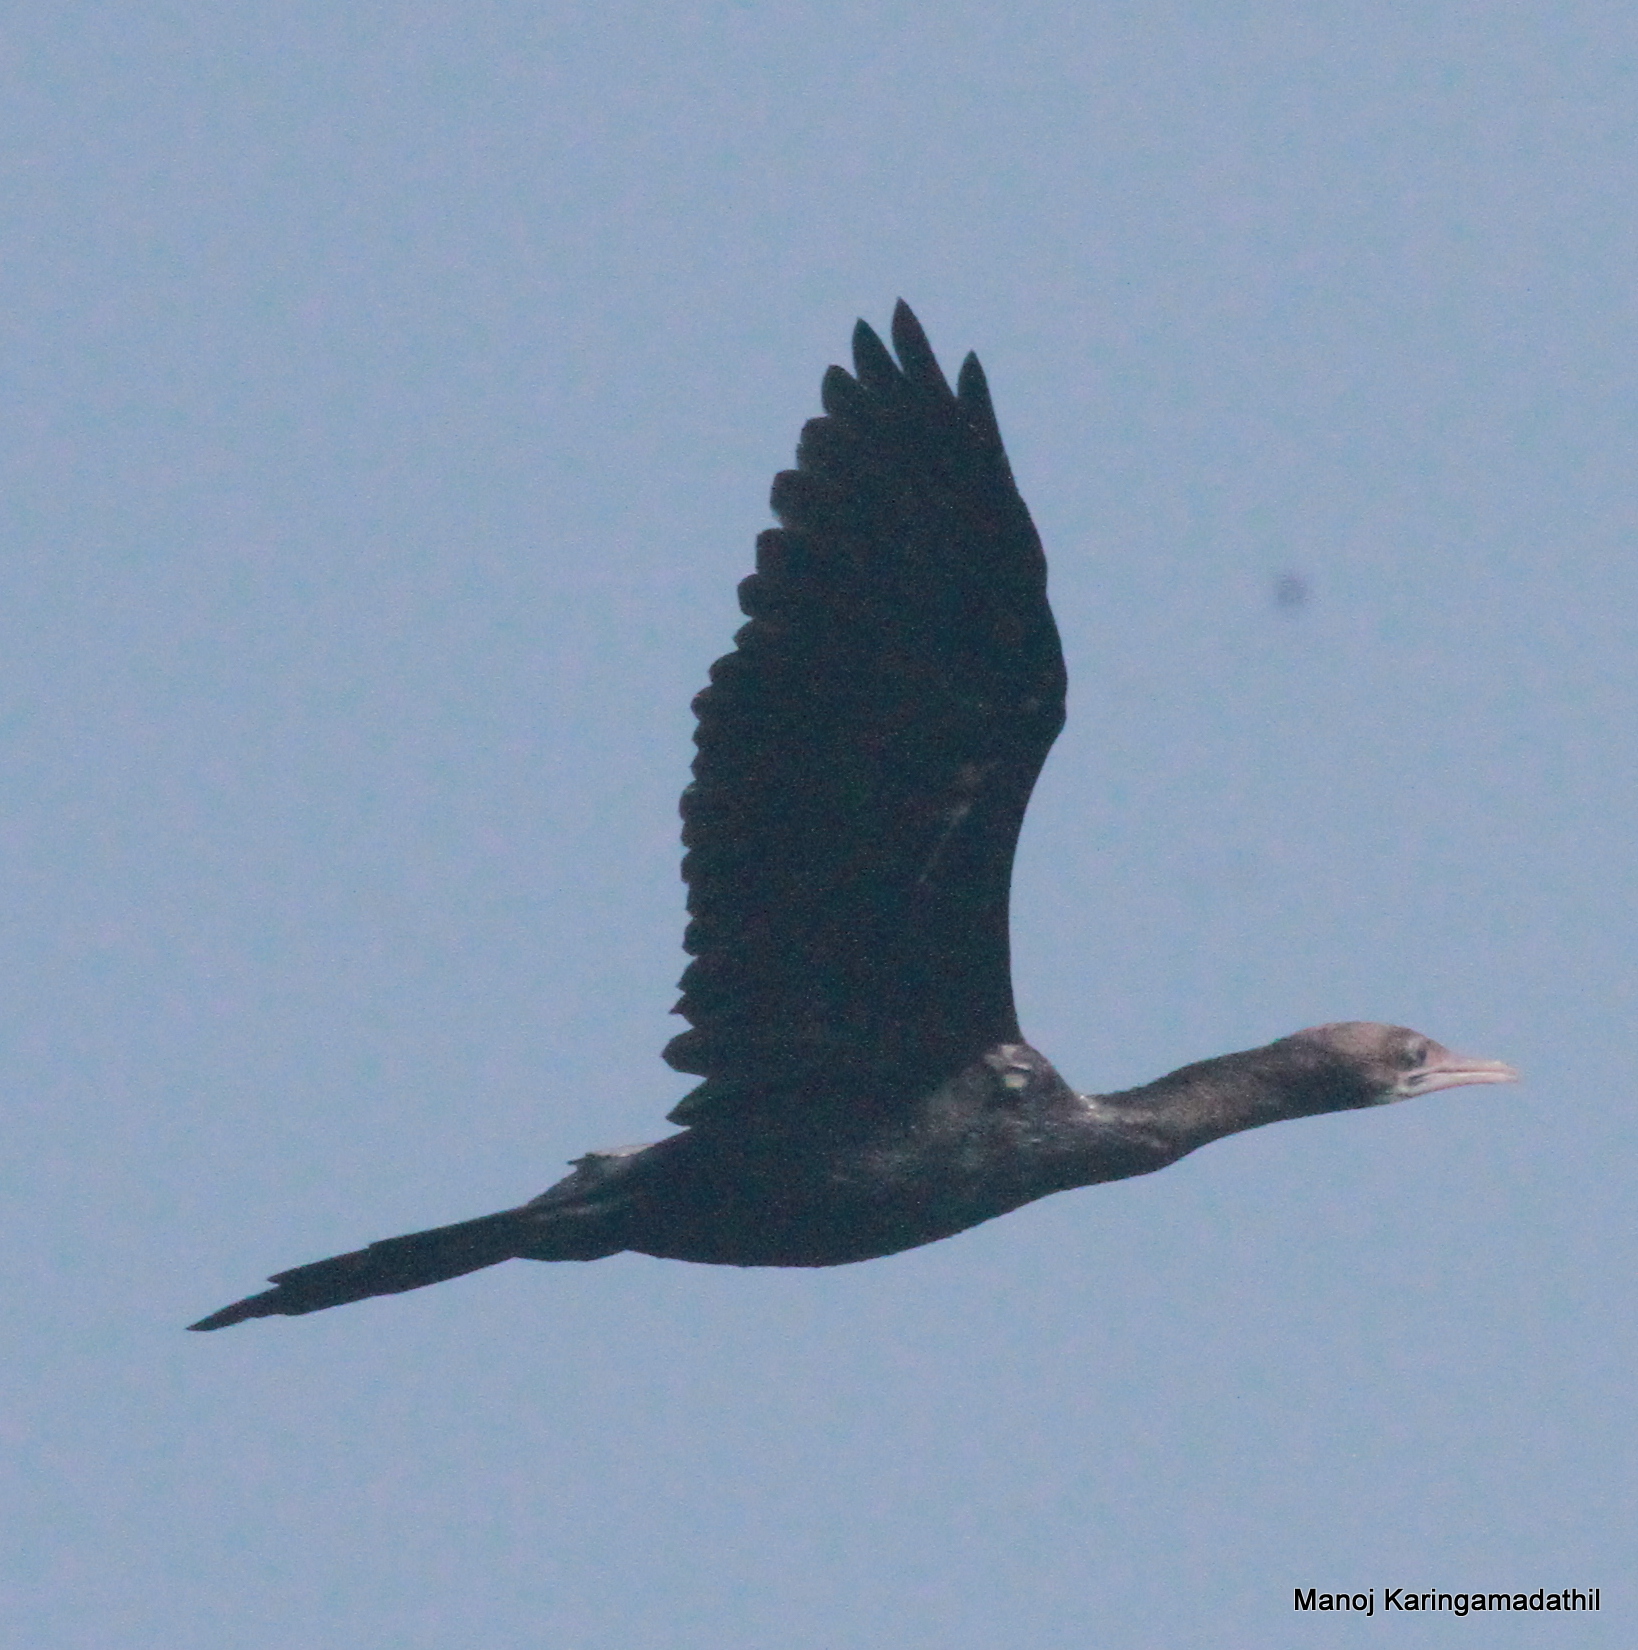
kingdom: Animalia
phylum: Chordata
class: Aves
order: Suliformes
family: Phalacrocoracidae
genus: Microcarbo
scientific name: Microcarbo niger
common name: Little cormorant
